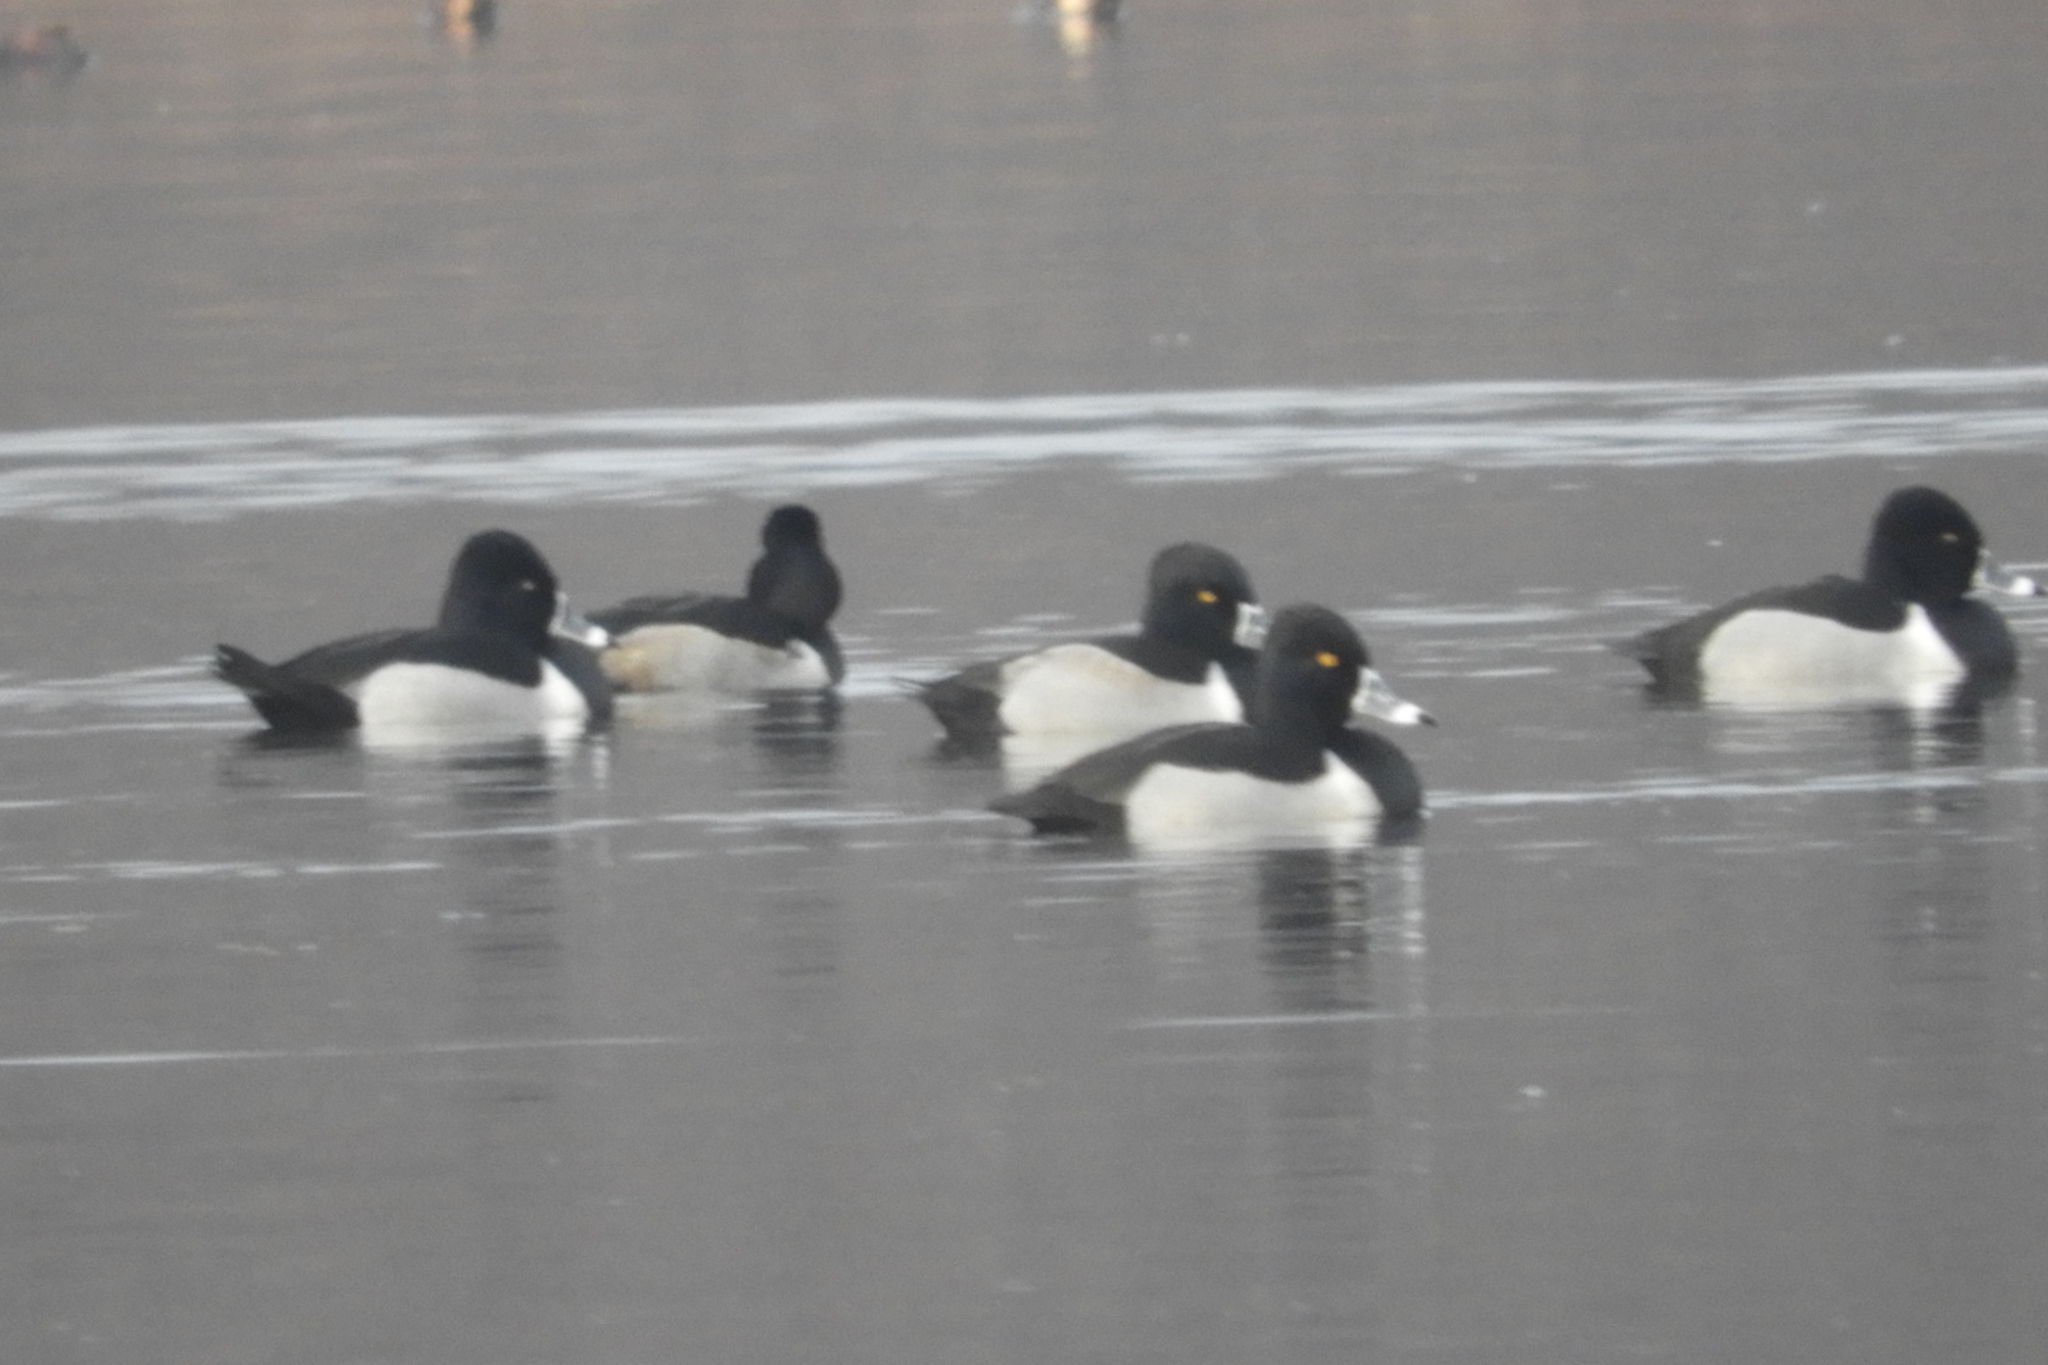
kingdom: Animalia
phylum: Chordata
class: Aves
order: Anseriformes
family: Anatidae
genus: Aythya
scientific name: Aythya collaris
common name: Ring-necked duck
